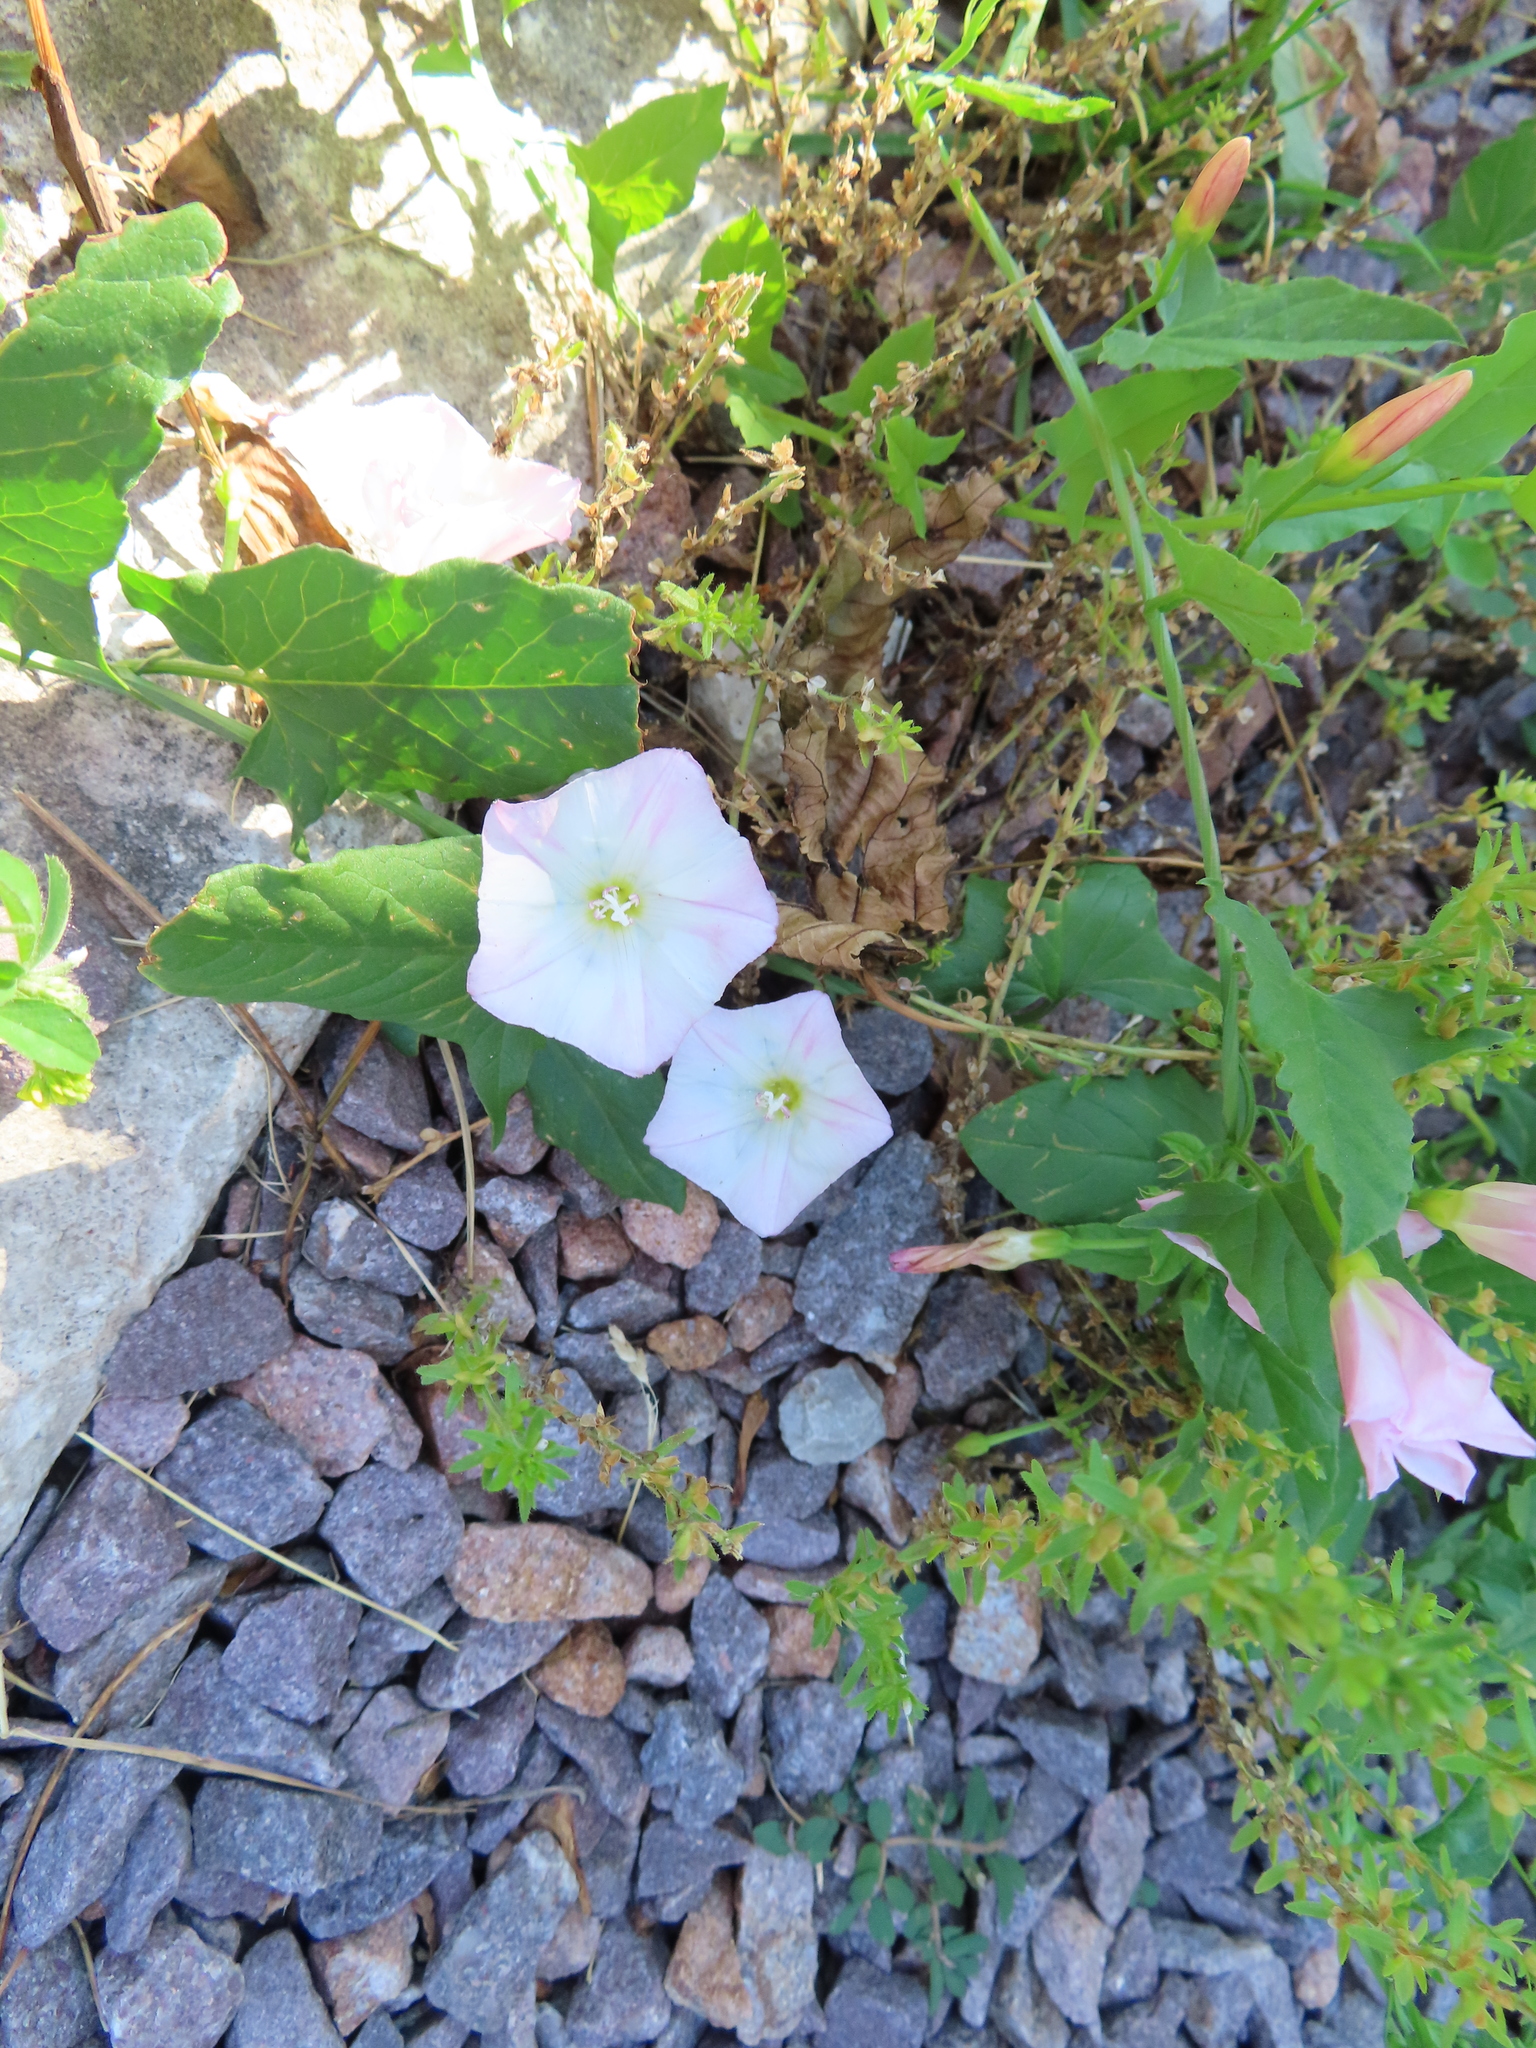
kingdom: Plantae
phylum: Tracheophyta
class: Magnoliopsida
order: Solanales
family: Convolvulaceae
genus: Convolvulus
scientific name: Convolvulus arvensis
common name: Field bindweed
